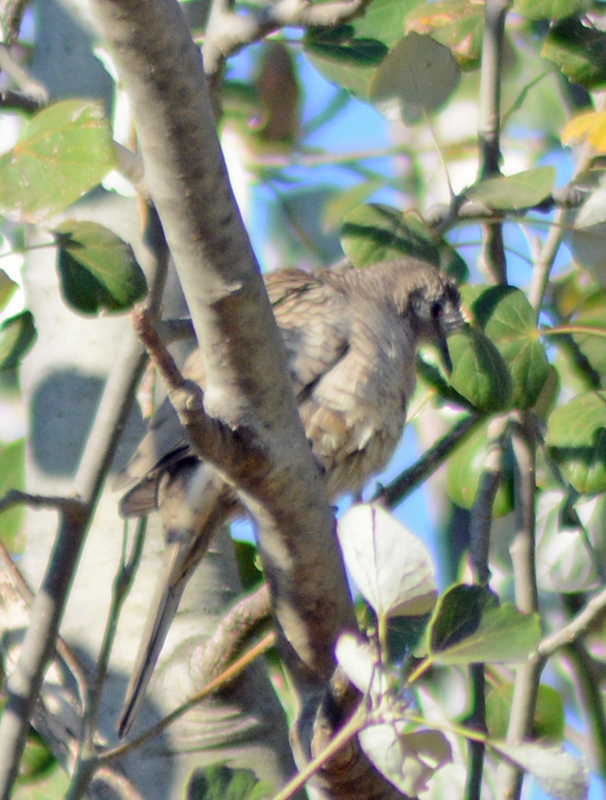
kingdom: Animalia
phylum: Chordata
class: Aves
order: Columbiformes
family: Columbidae
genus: Columbina
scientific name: Columbina inca
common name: Inca dove
